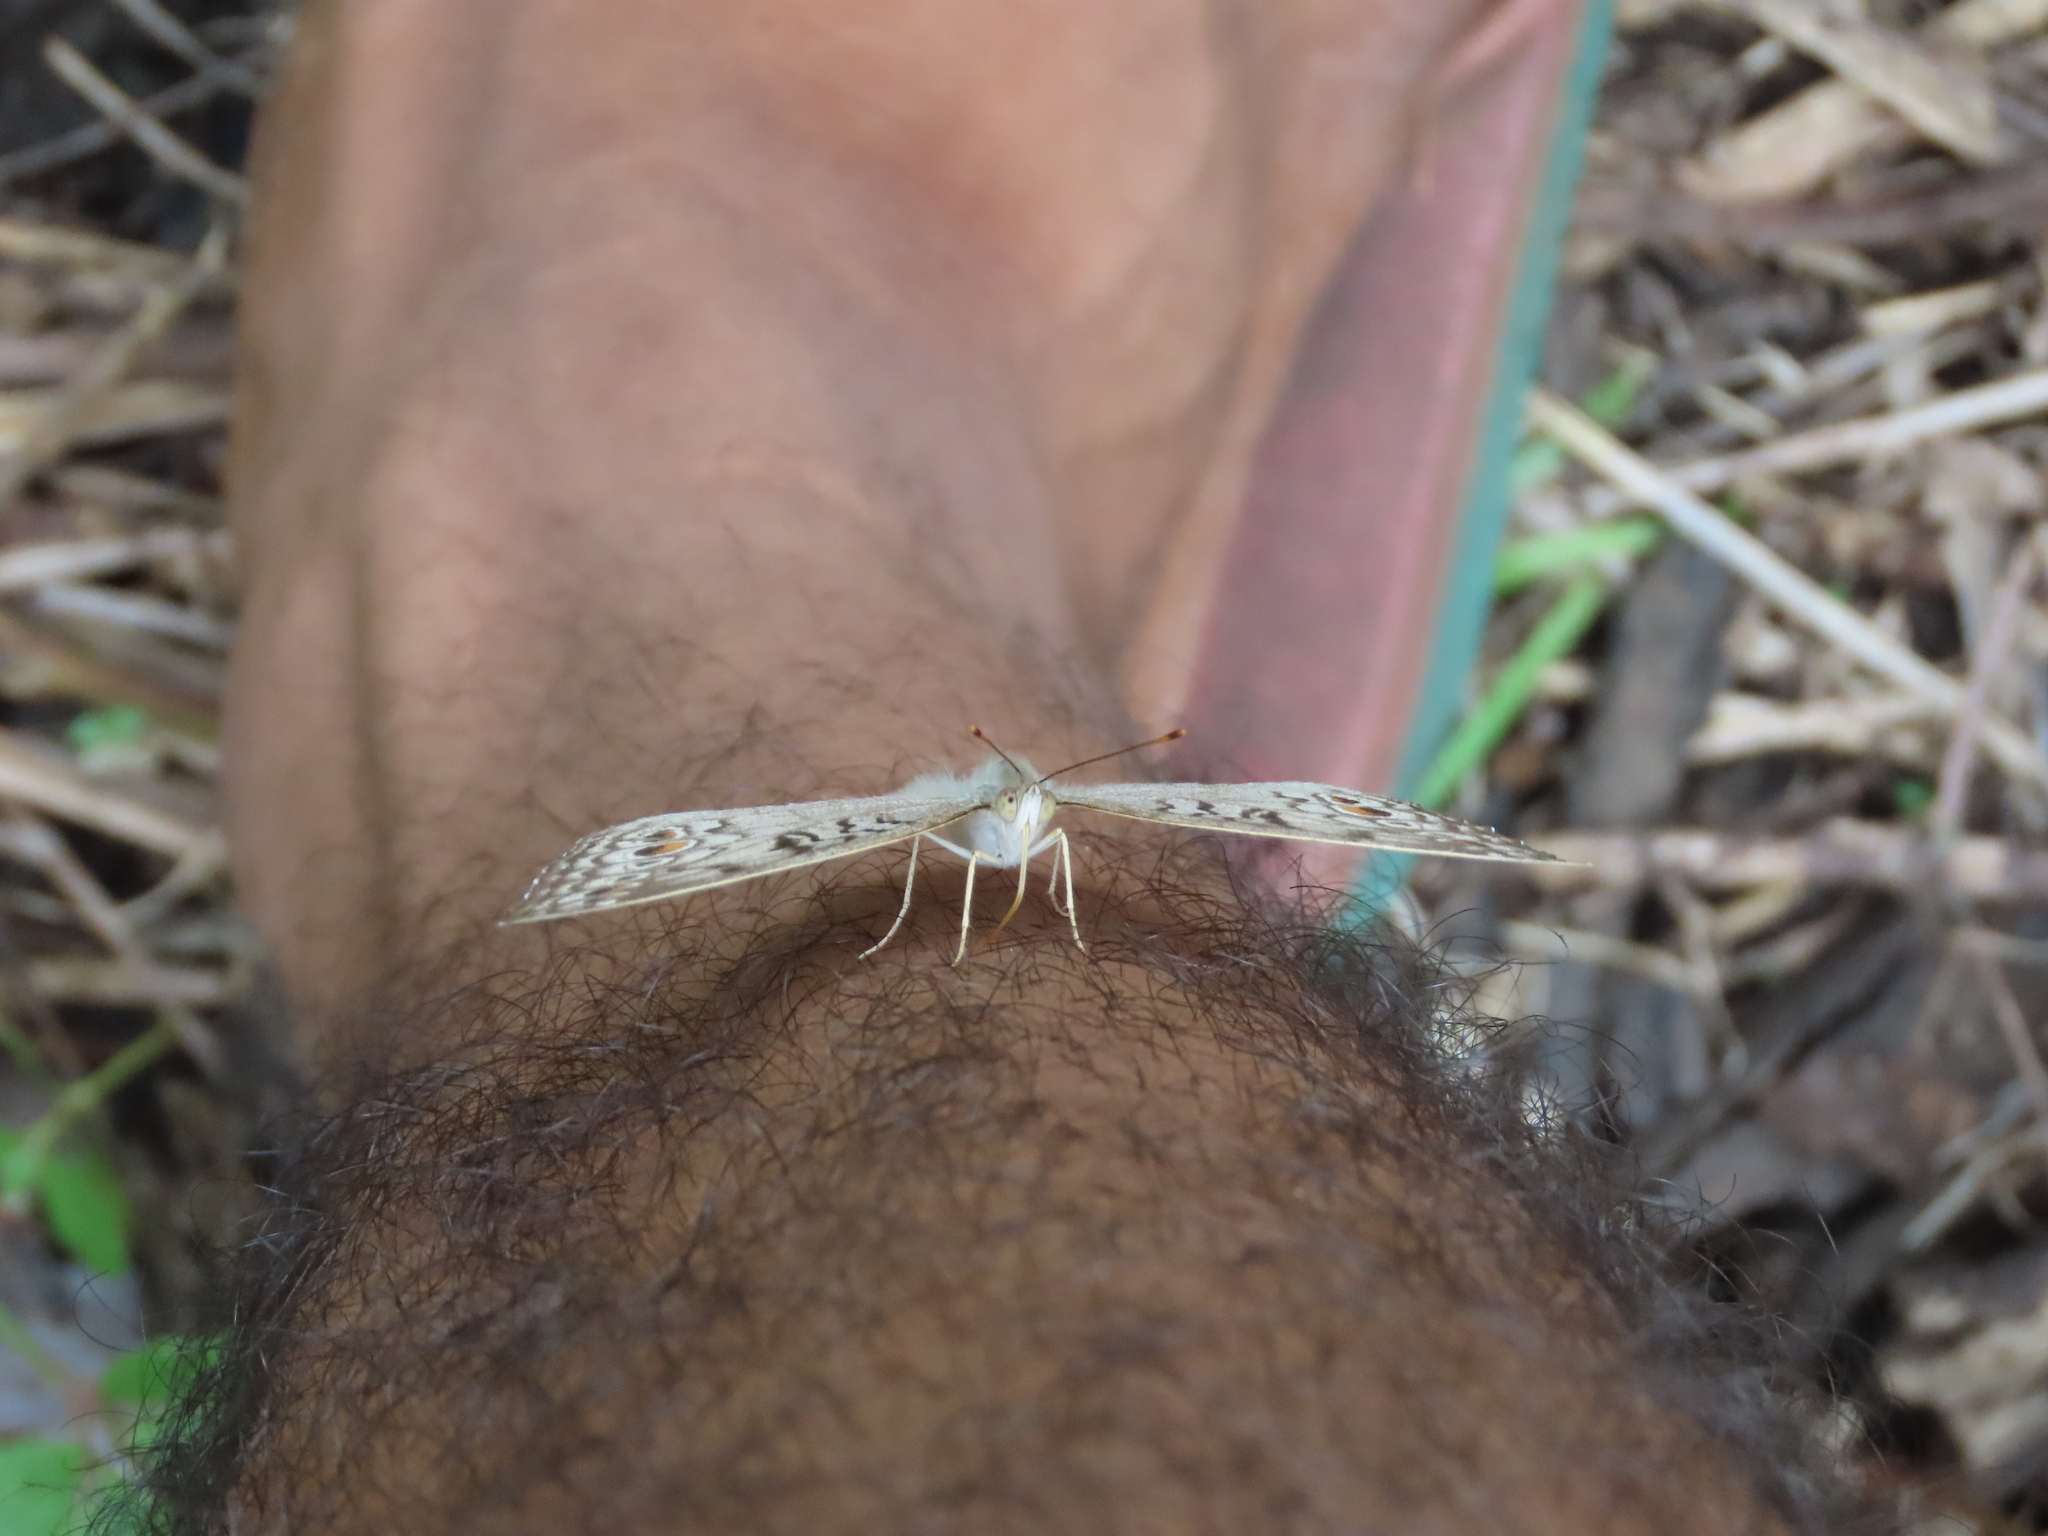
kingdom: Animalia
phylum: Arthropoda
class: Insecta
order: Lepidoptera
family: Nymphalidae
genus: Junonia
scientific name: Junonia atlites
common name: Grey pansy
